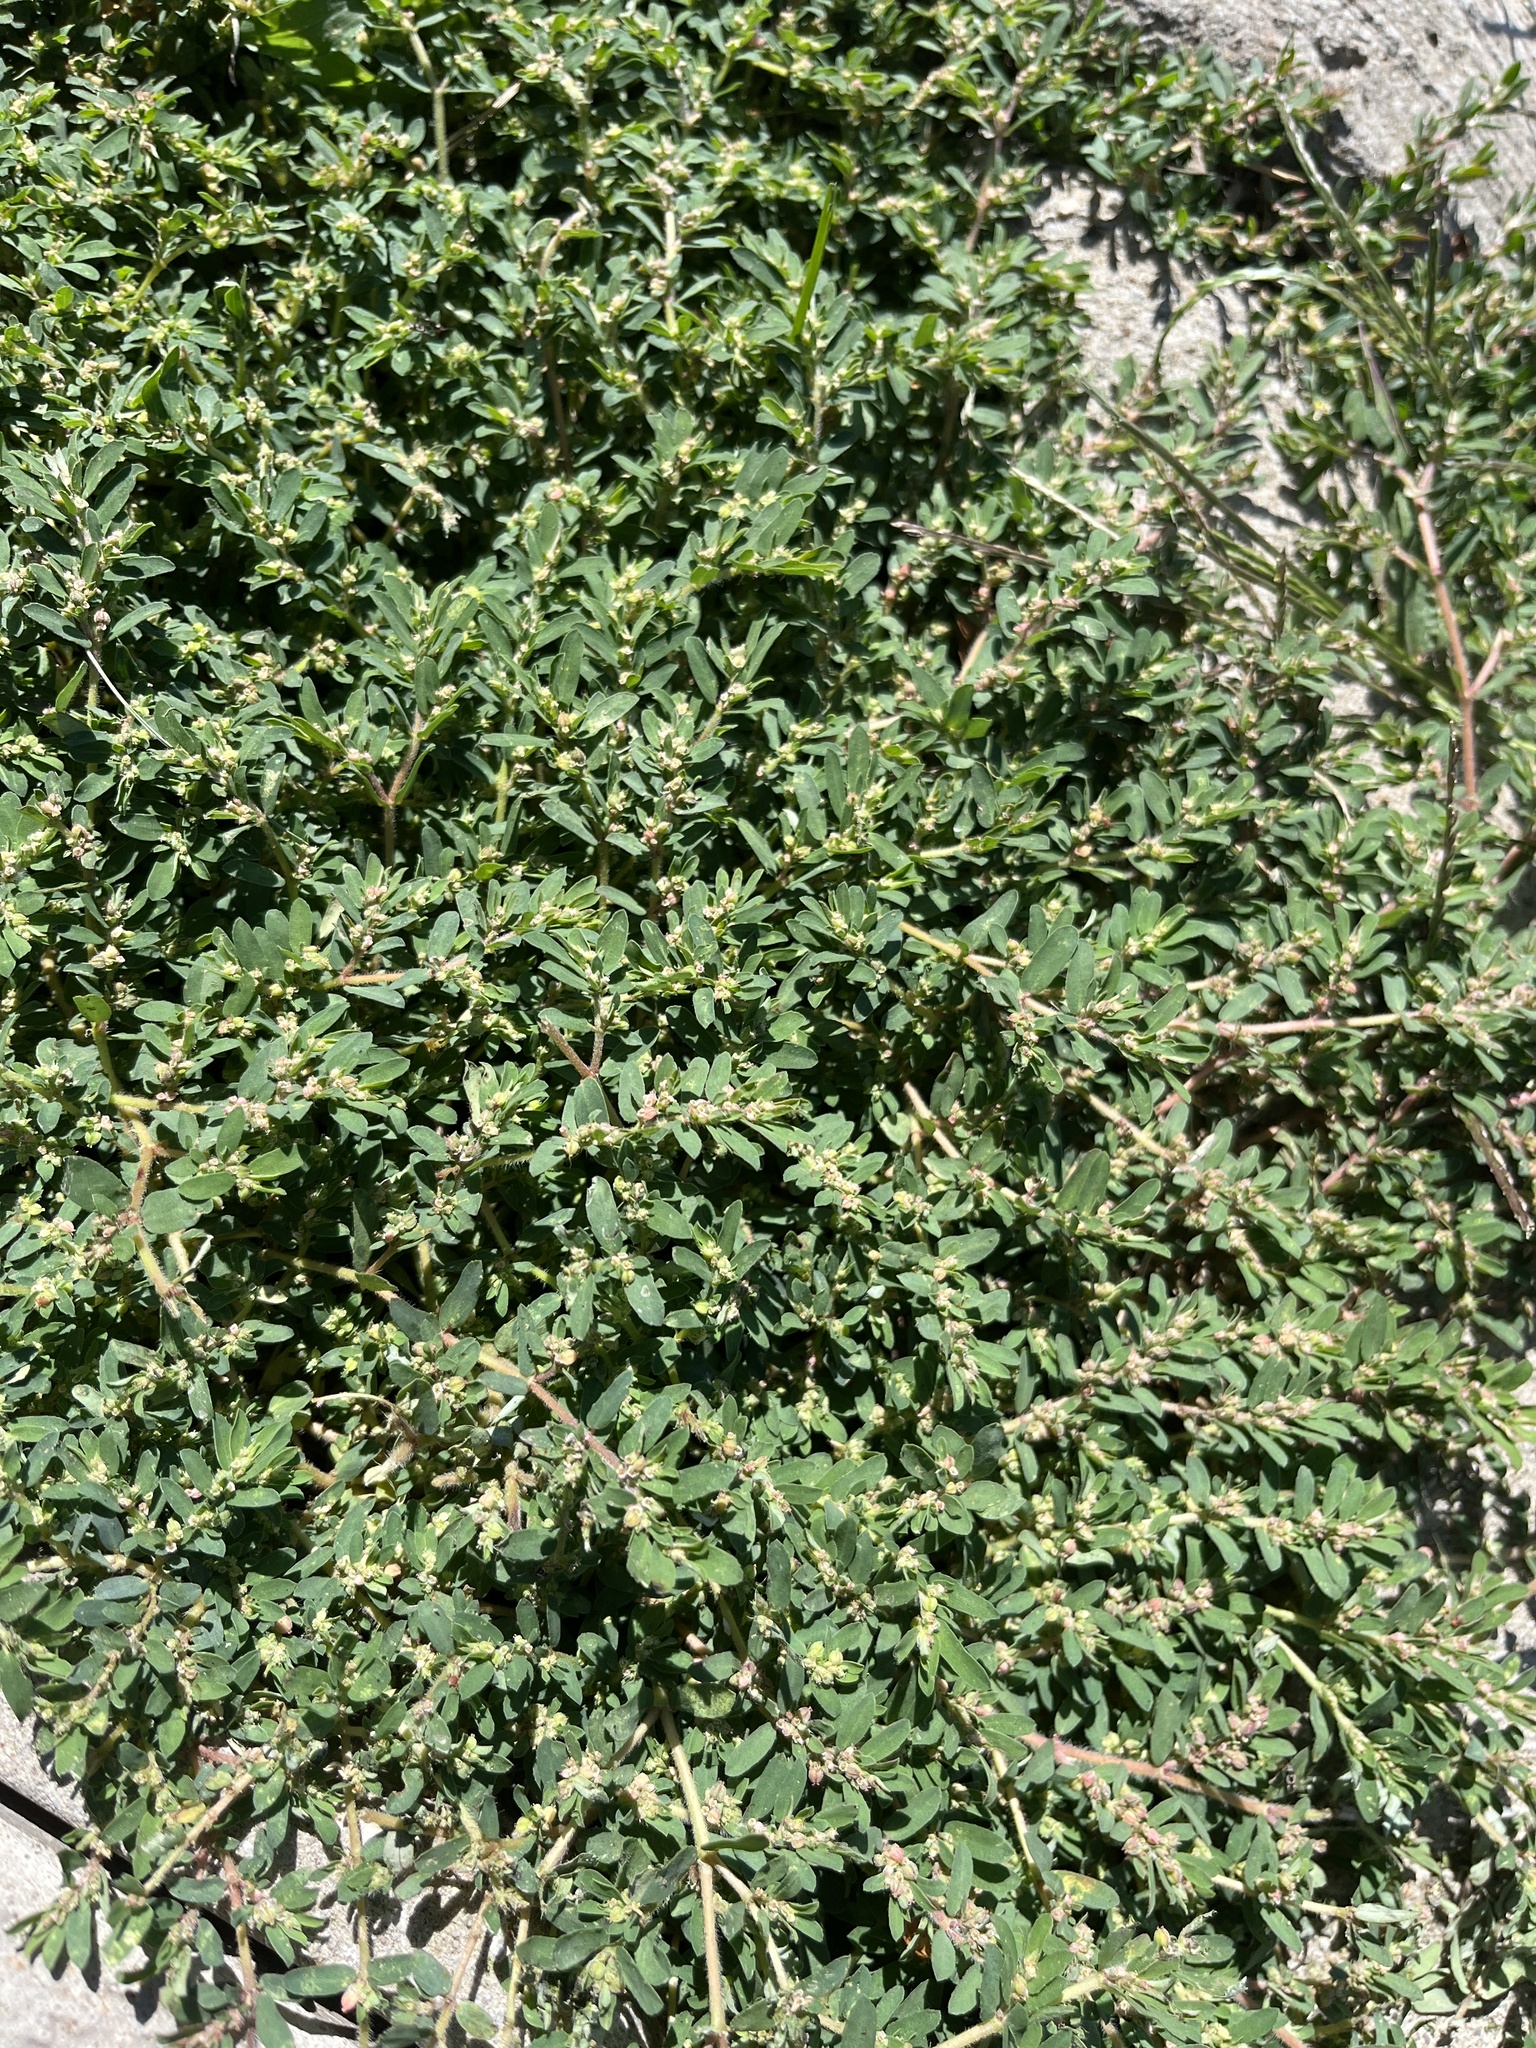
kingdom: Plantae
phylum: Tracheophyta
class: Magnoliopsida
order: Malpighiales
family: Euphorbiaceae
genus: Euphorbia
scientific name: Euphorbia maculata
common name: Spotted spurge
